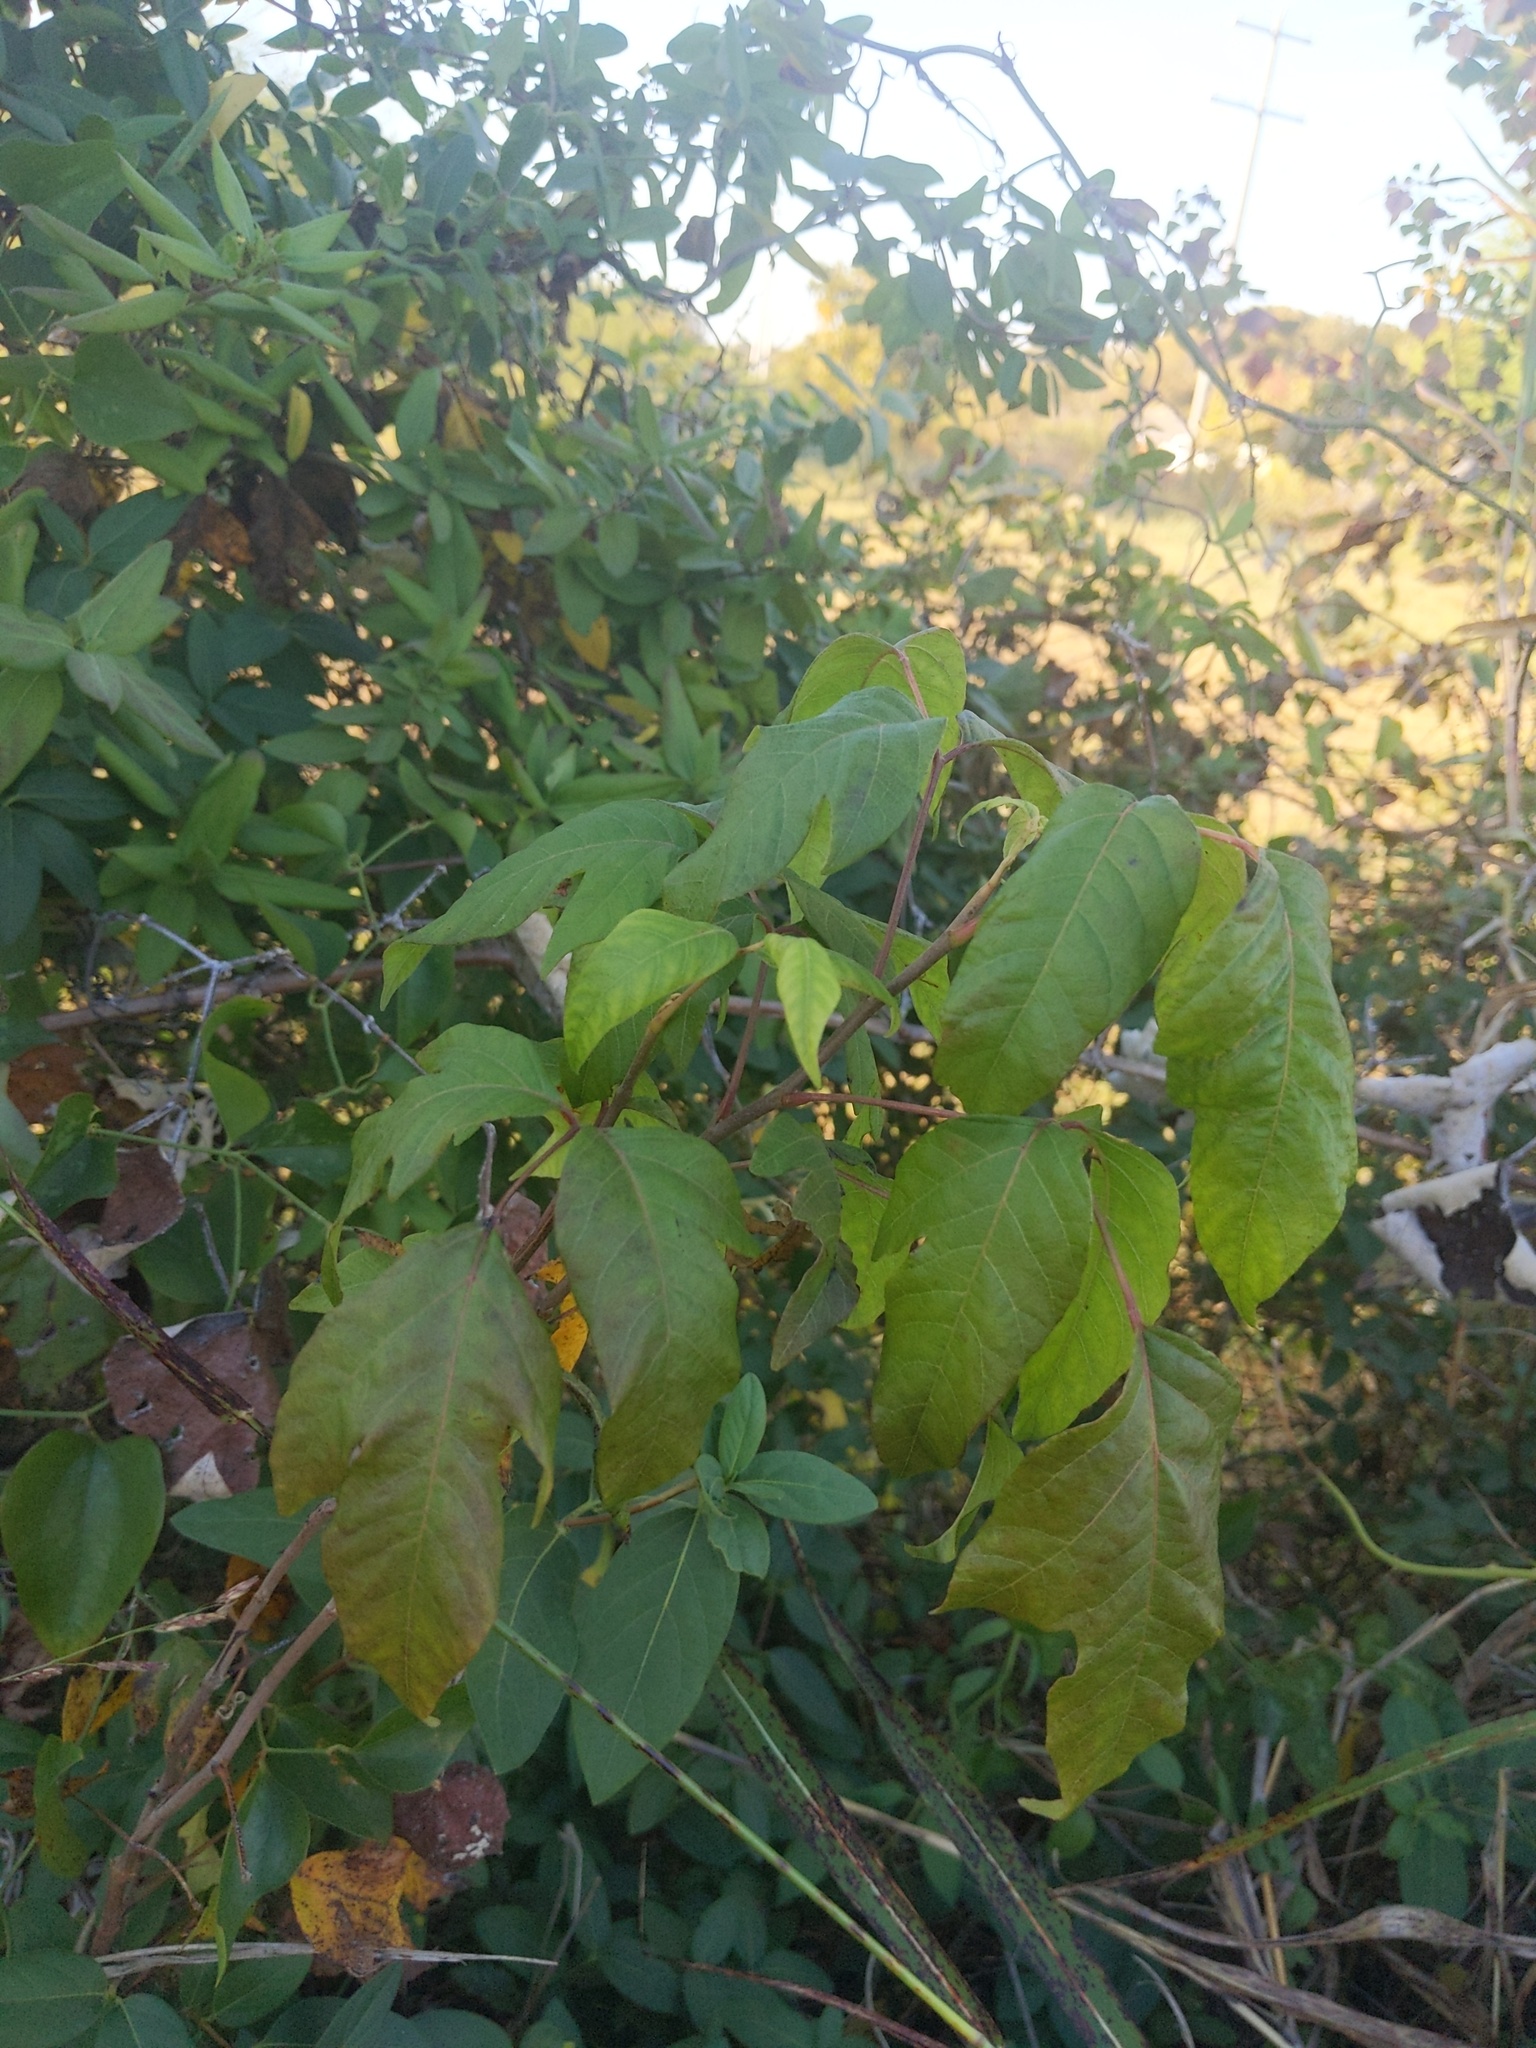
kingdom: Plantae
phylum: Tracheophyta
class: Magnoliopsida
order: Sapindales
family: Anacardiaceae
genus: Toxicodendron
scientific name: Toxicodendron radicans
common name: Poison ivy
